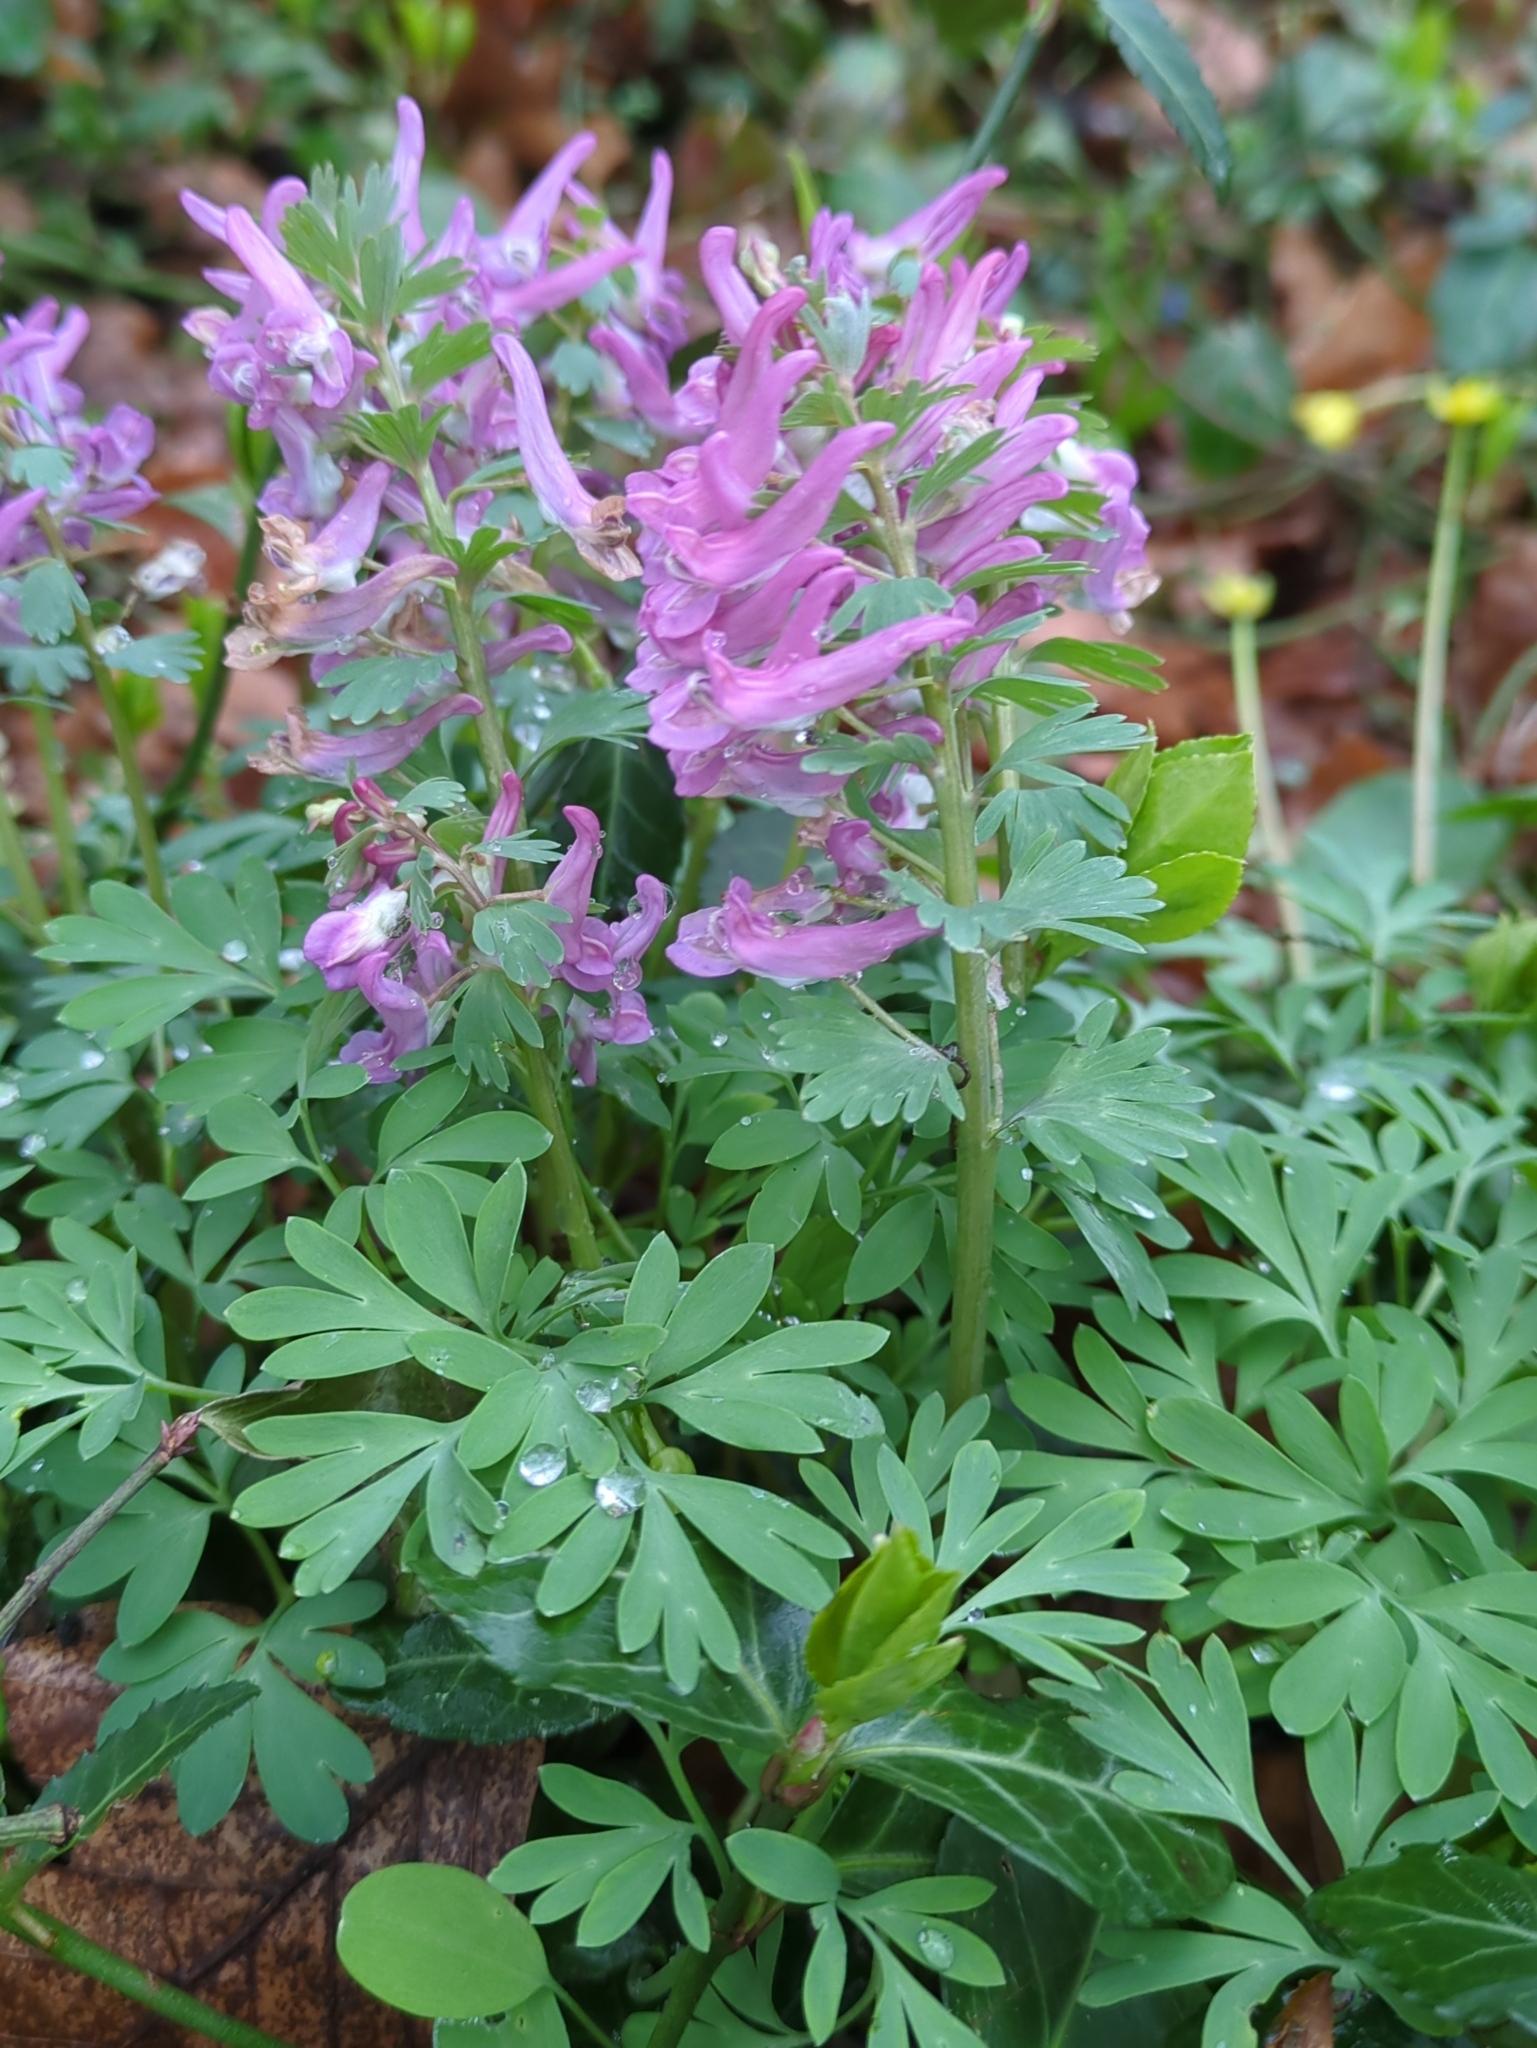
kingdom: Plantae
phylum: Tracheophyta
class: Magnoliopsida
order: Ranunculales
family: Papaveraceae
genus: Corydalis
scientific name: Corydalis solida
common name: Bird-in-a-bush
